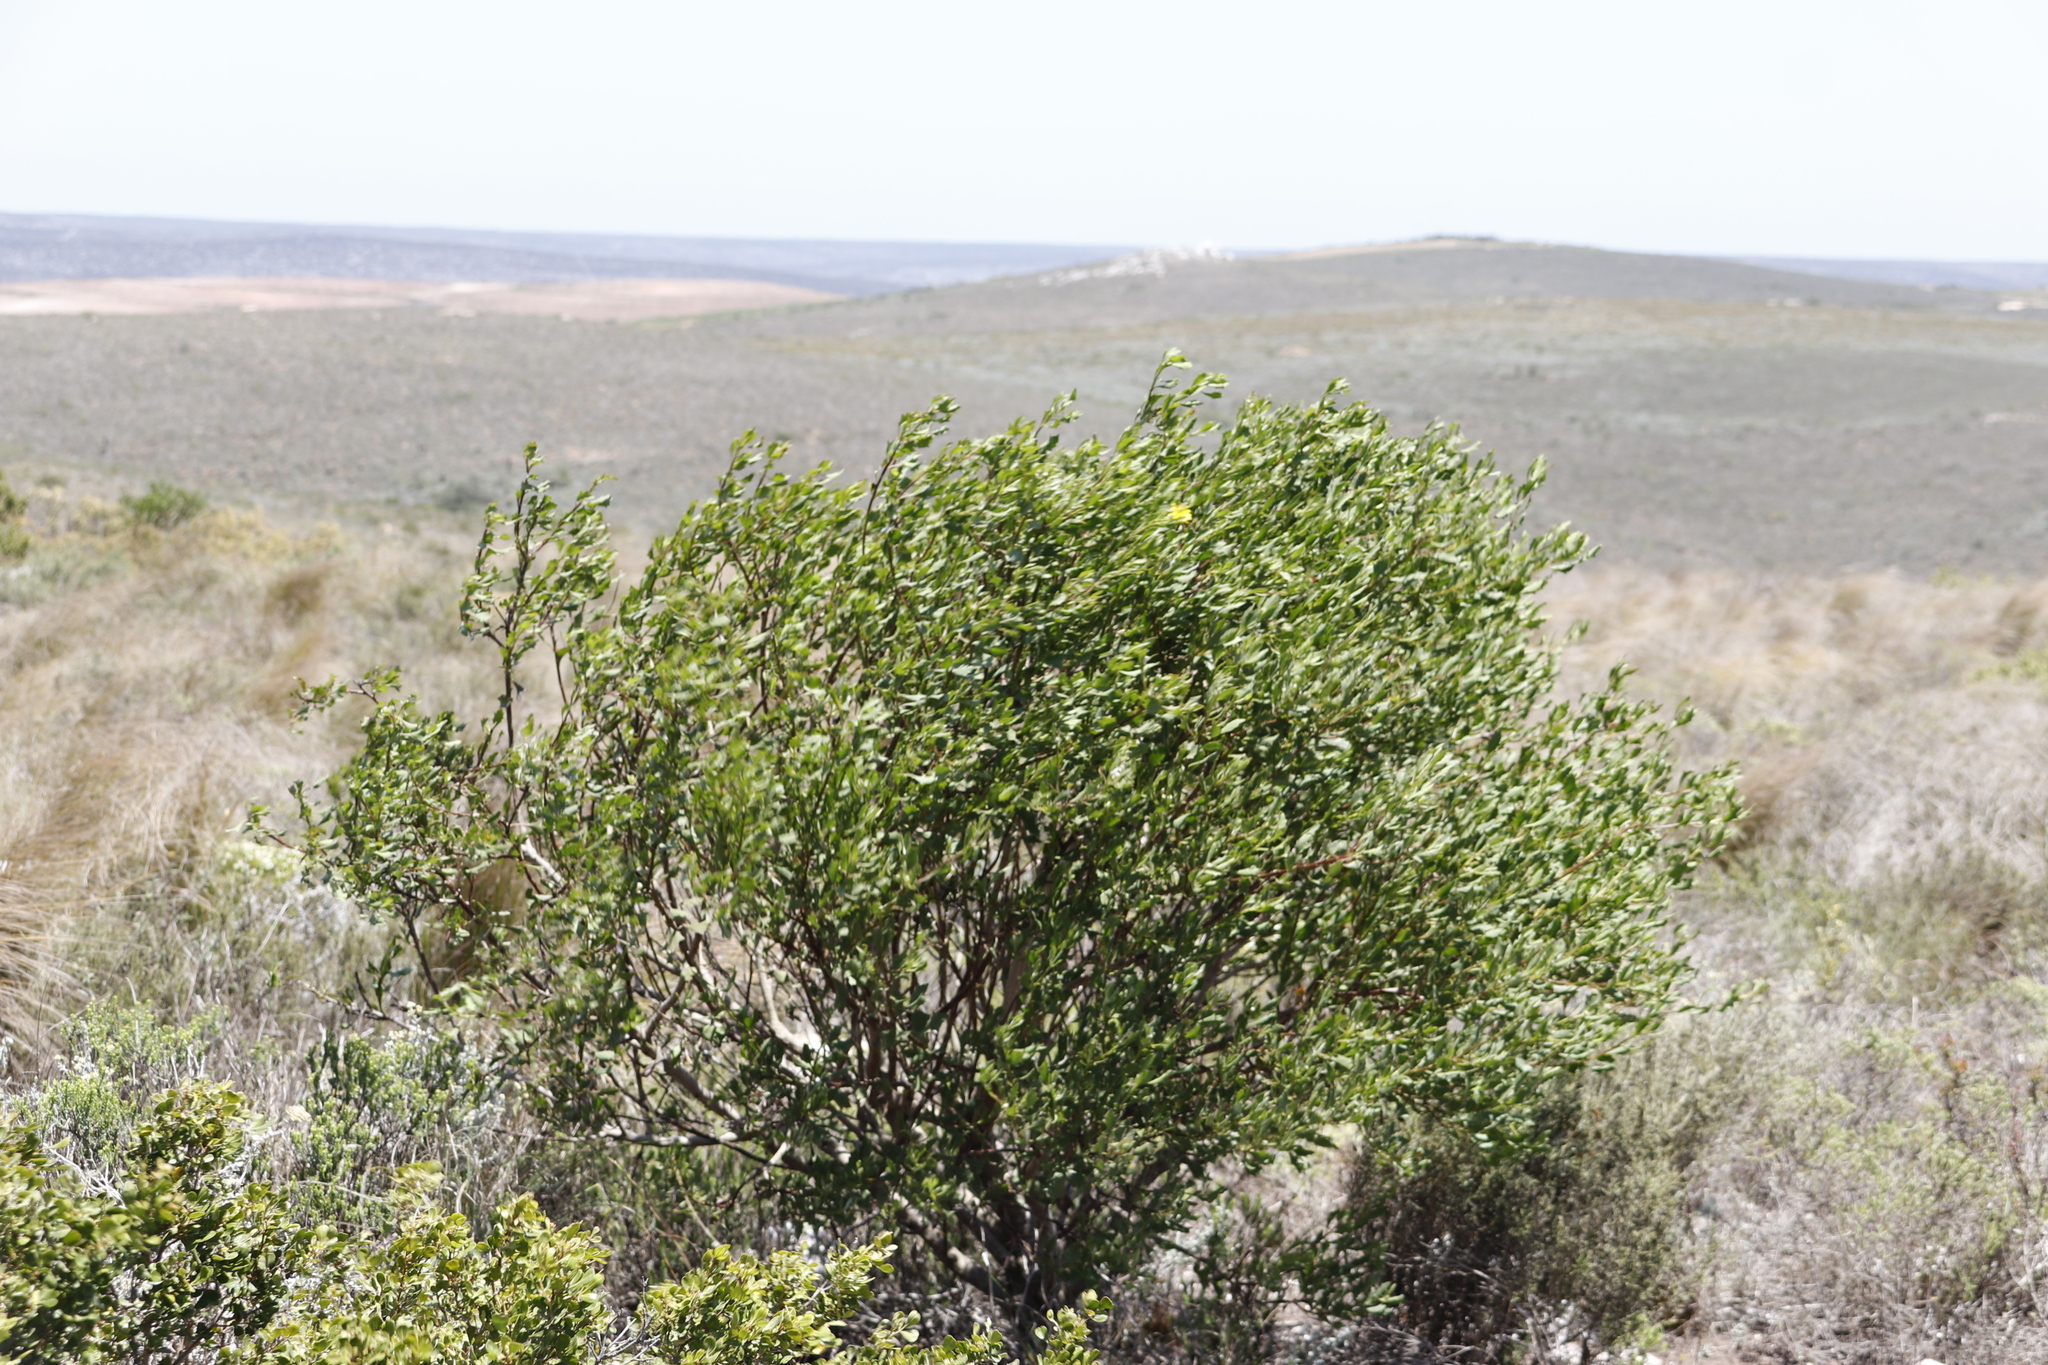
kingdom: Plantae
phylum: Tracheophyta
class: Magnoliopsida
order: Asterales
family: Asteraceae
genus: Osteospermum
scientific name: Osteospermum moniliferum
